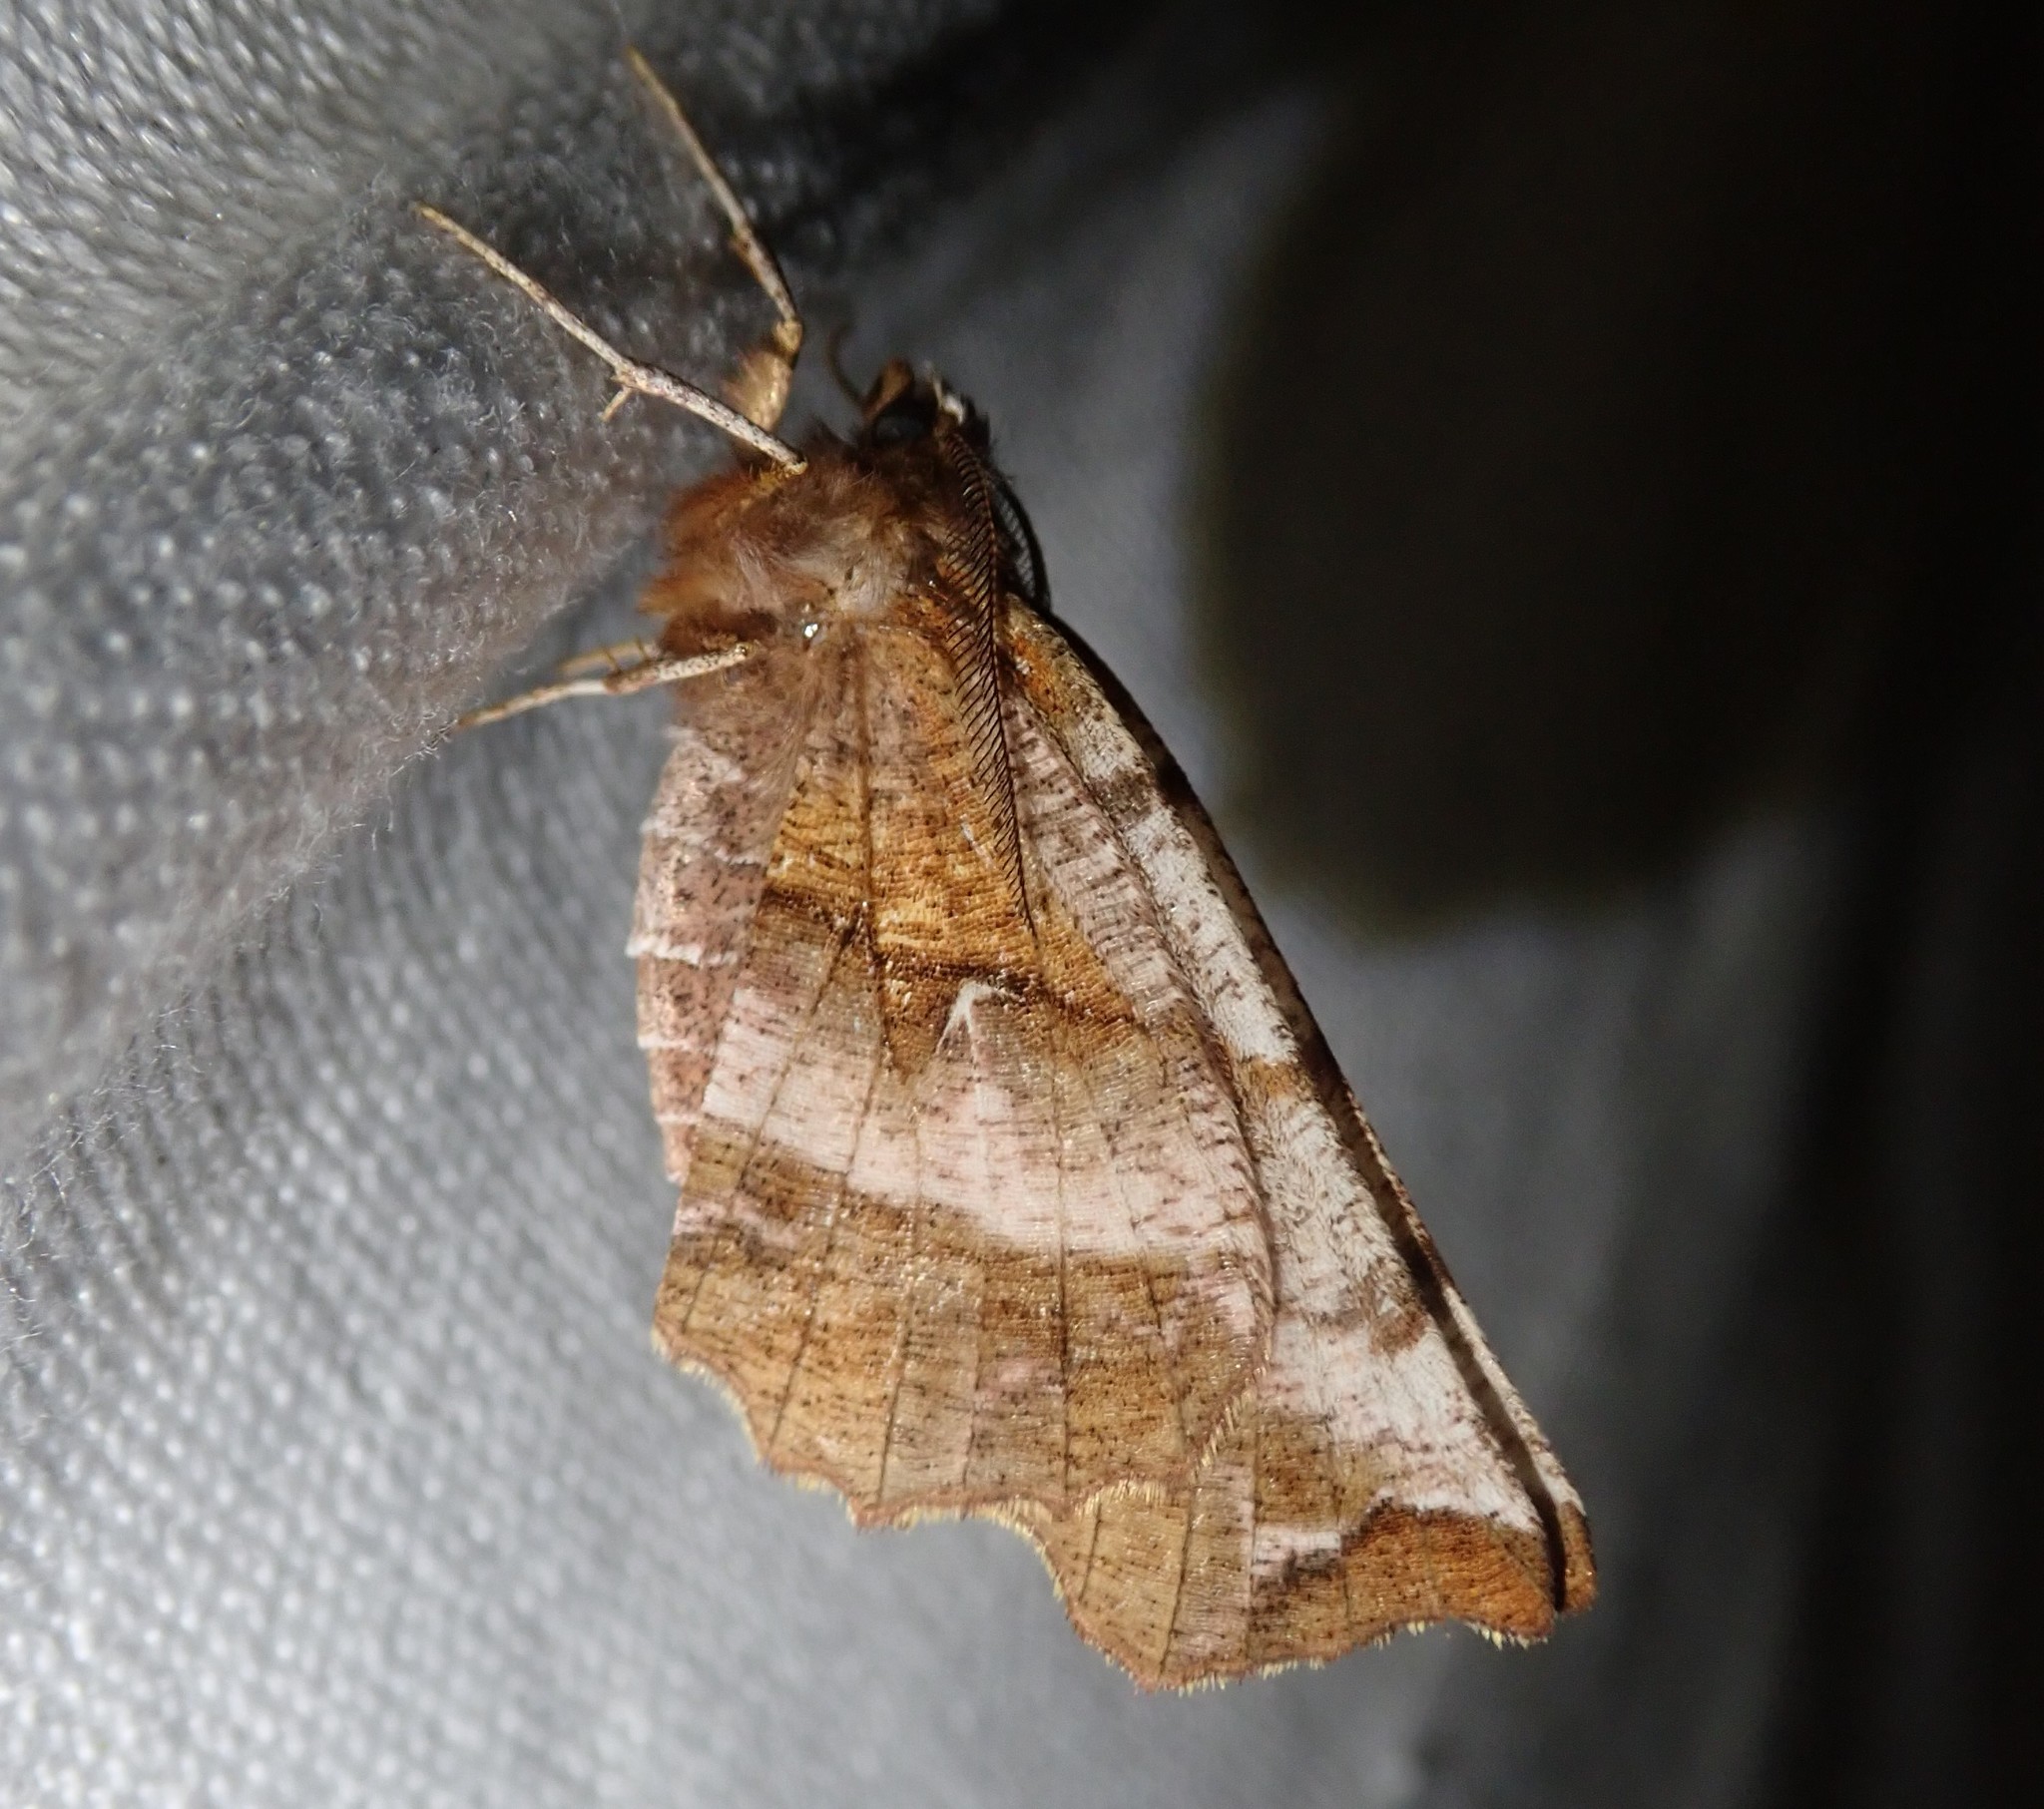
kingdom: Animalia
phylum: Arthropoda
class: Insecta
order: Lepidoptera
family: Geometridae
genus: Selenia
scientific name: Selenia dentaria
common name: Early thorn
